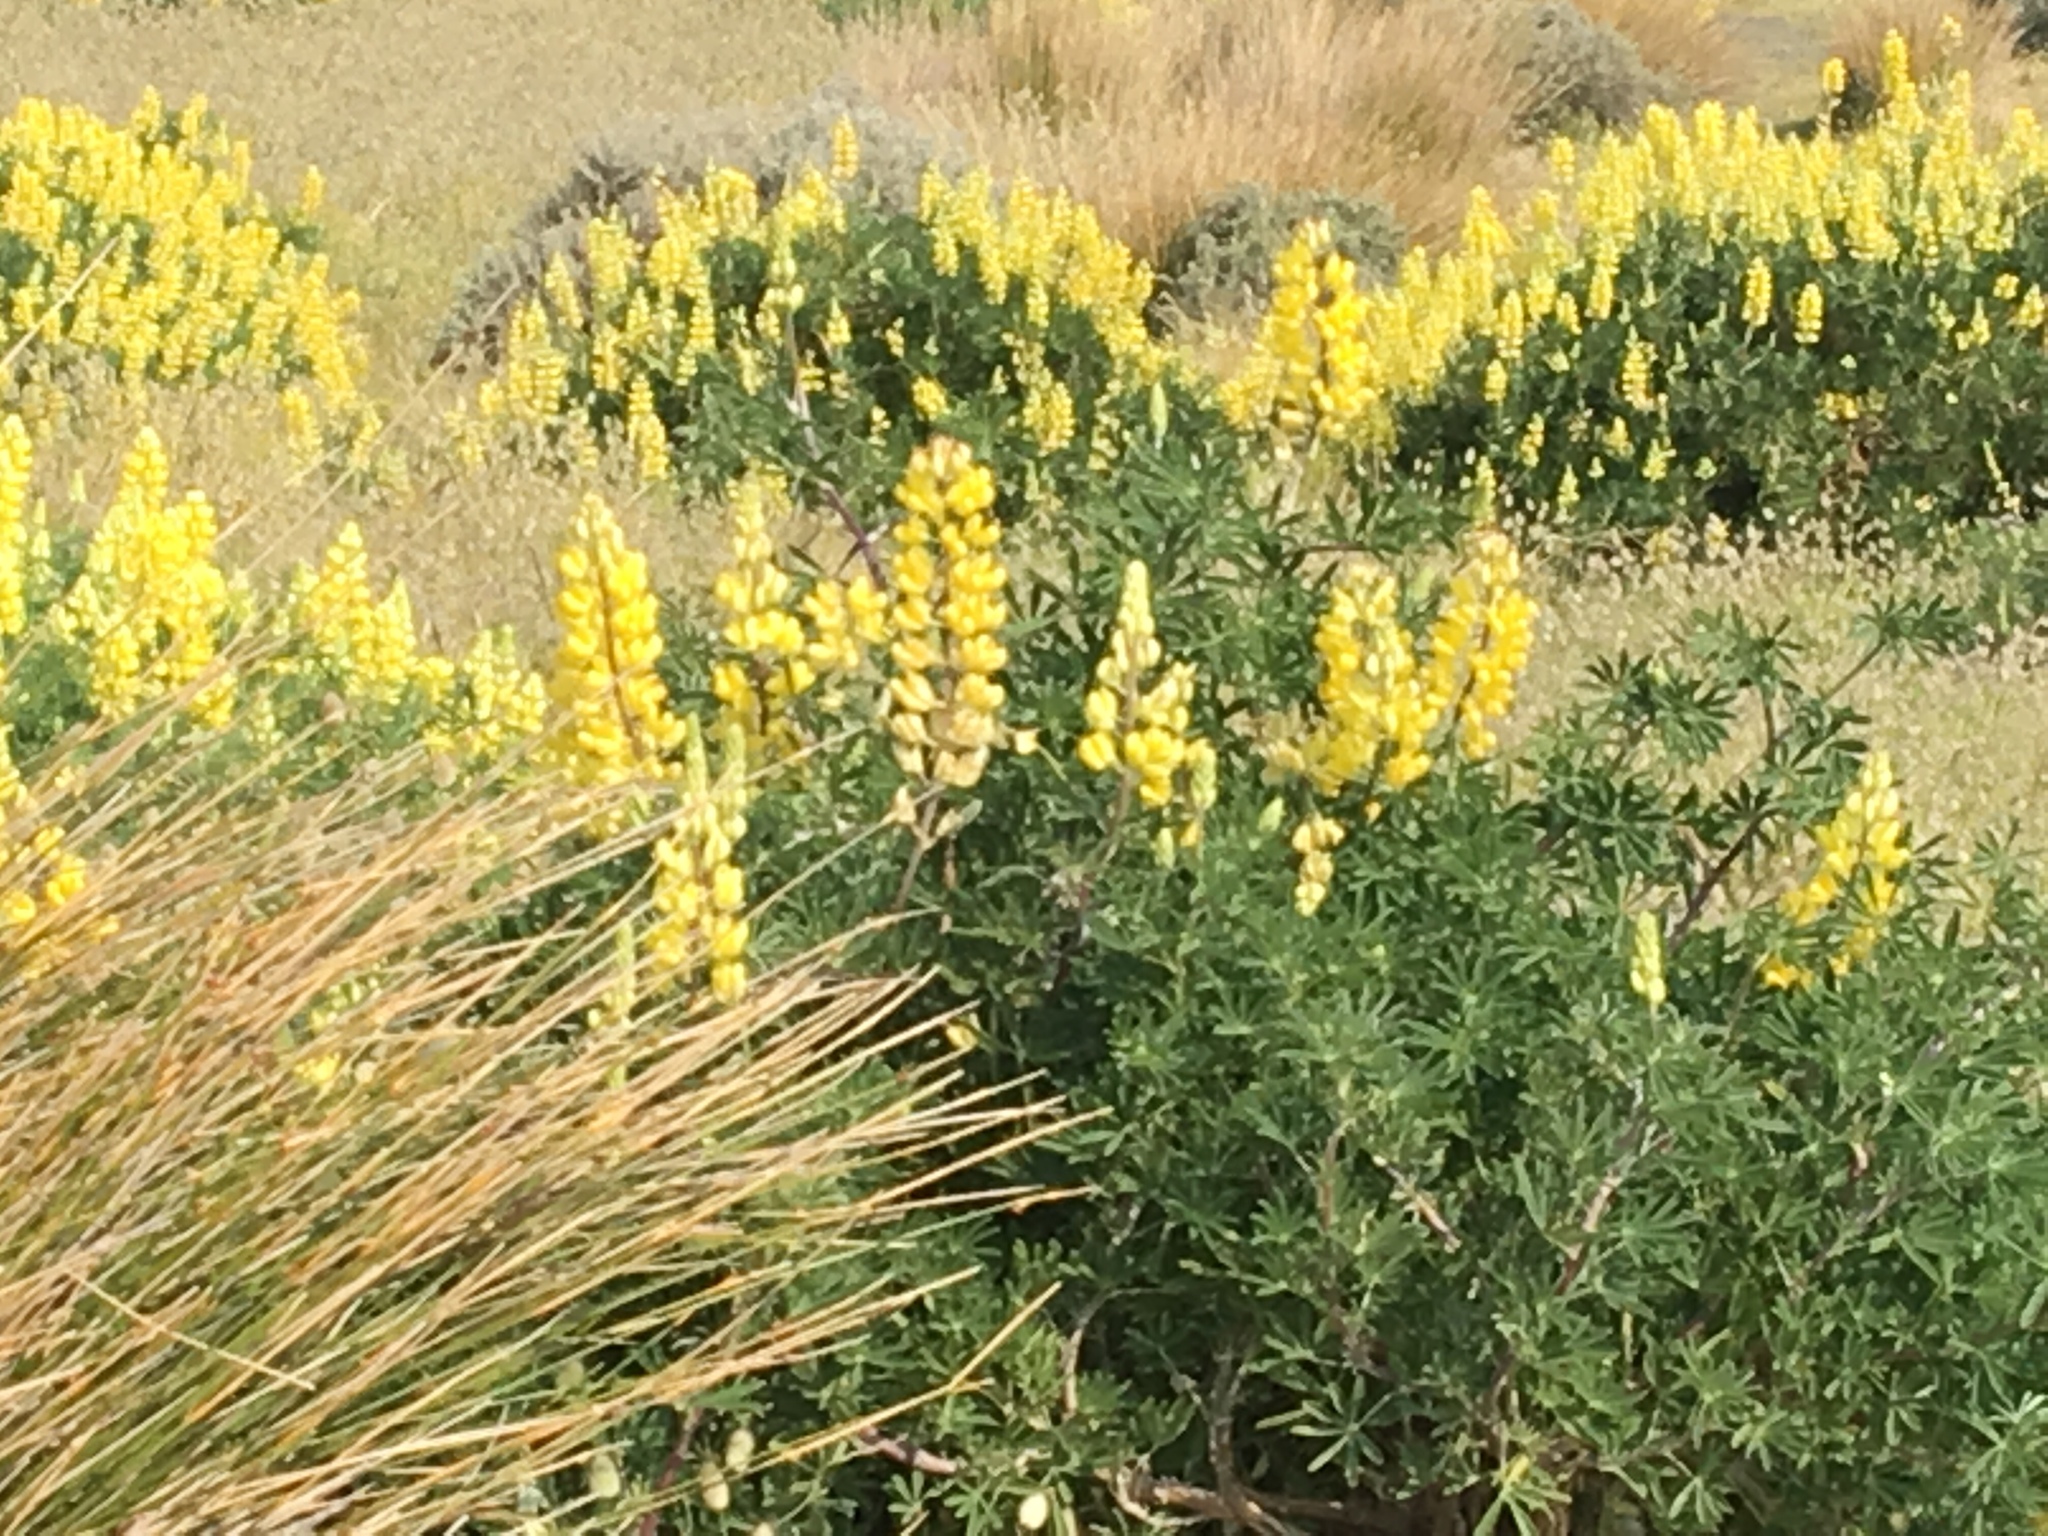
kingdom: Plantae
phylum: Tracheophyta
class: Magnoliopsida
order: Fabales
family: Fabaceae
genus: Lupinus
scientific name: Lupinus arboreus
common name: Yellow bush lupine
